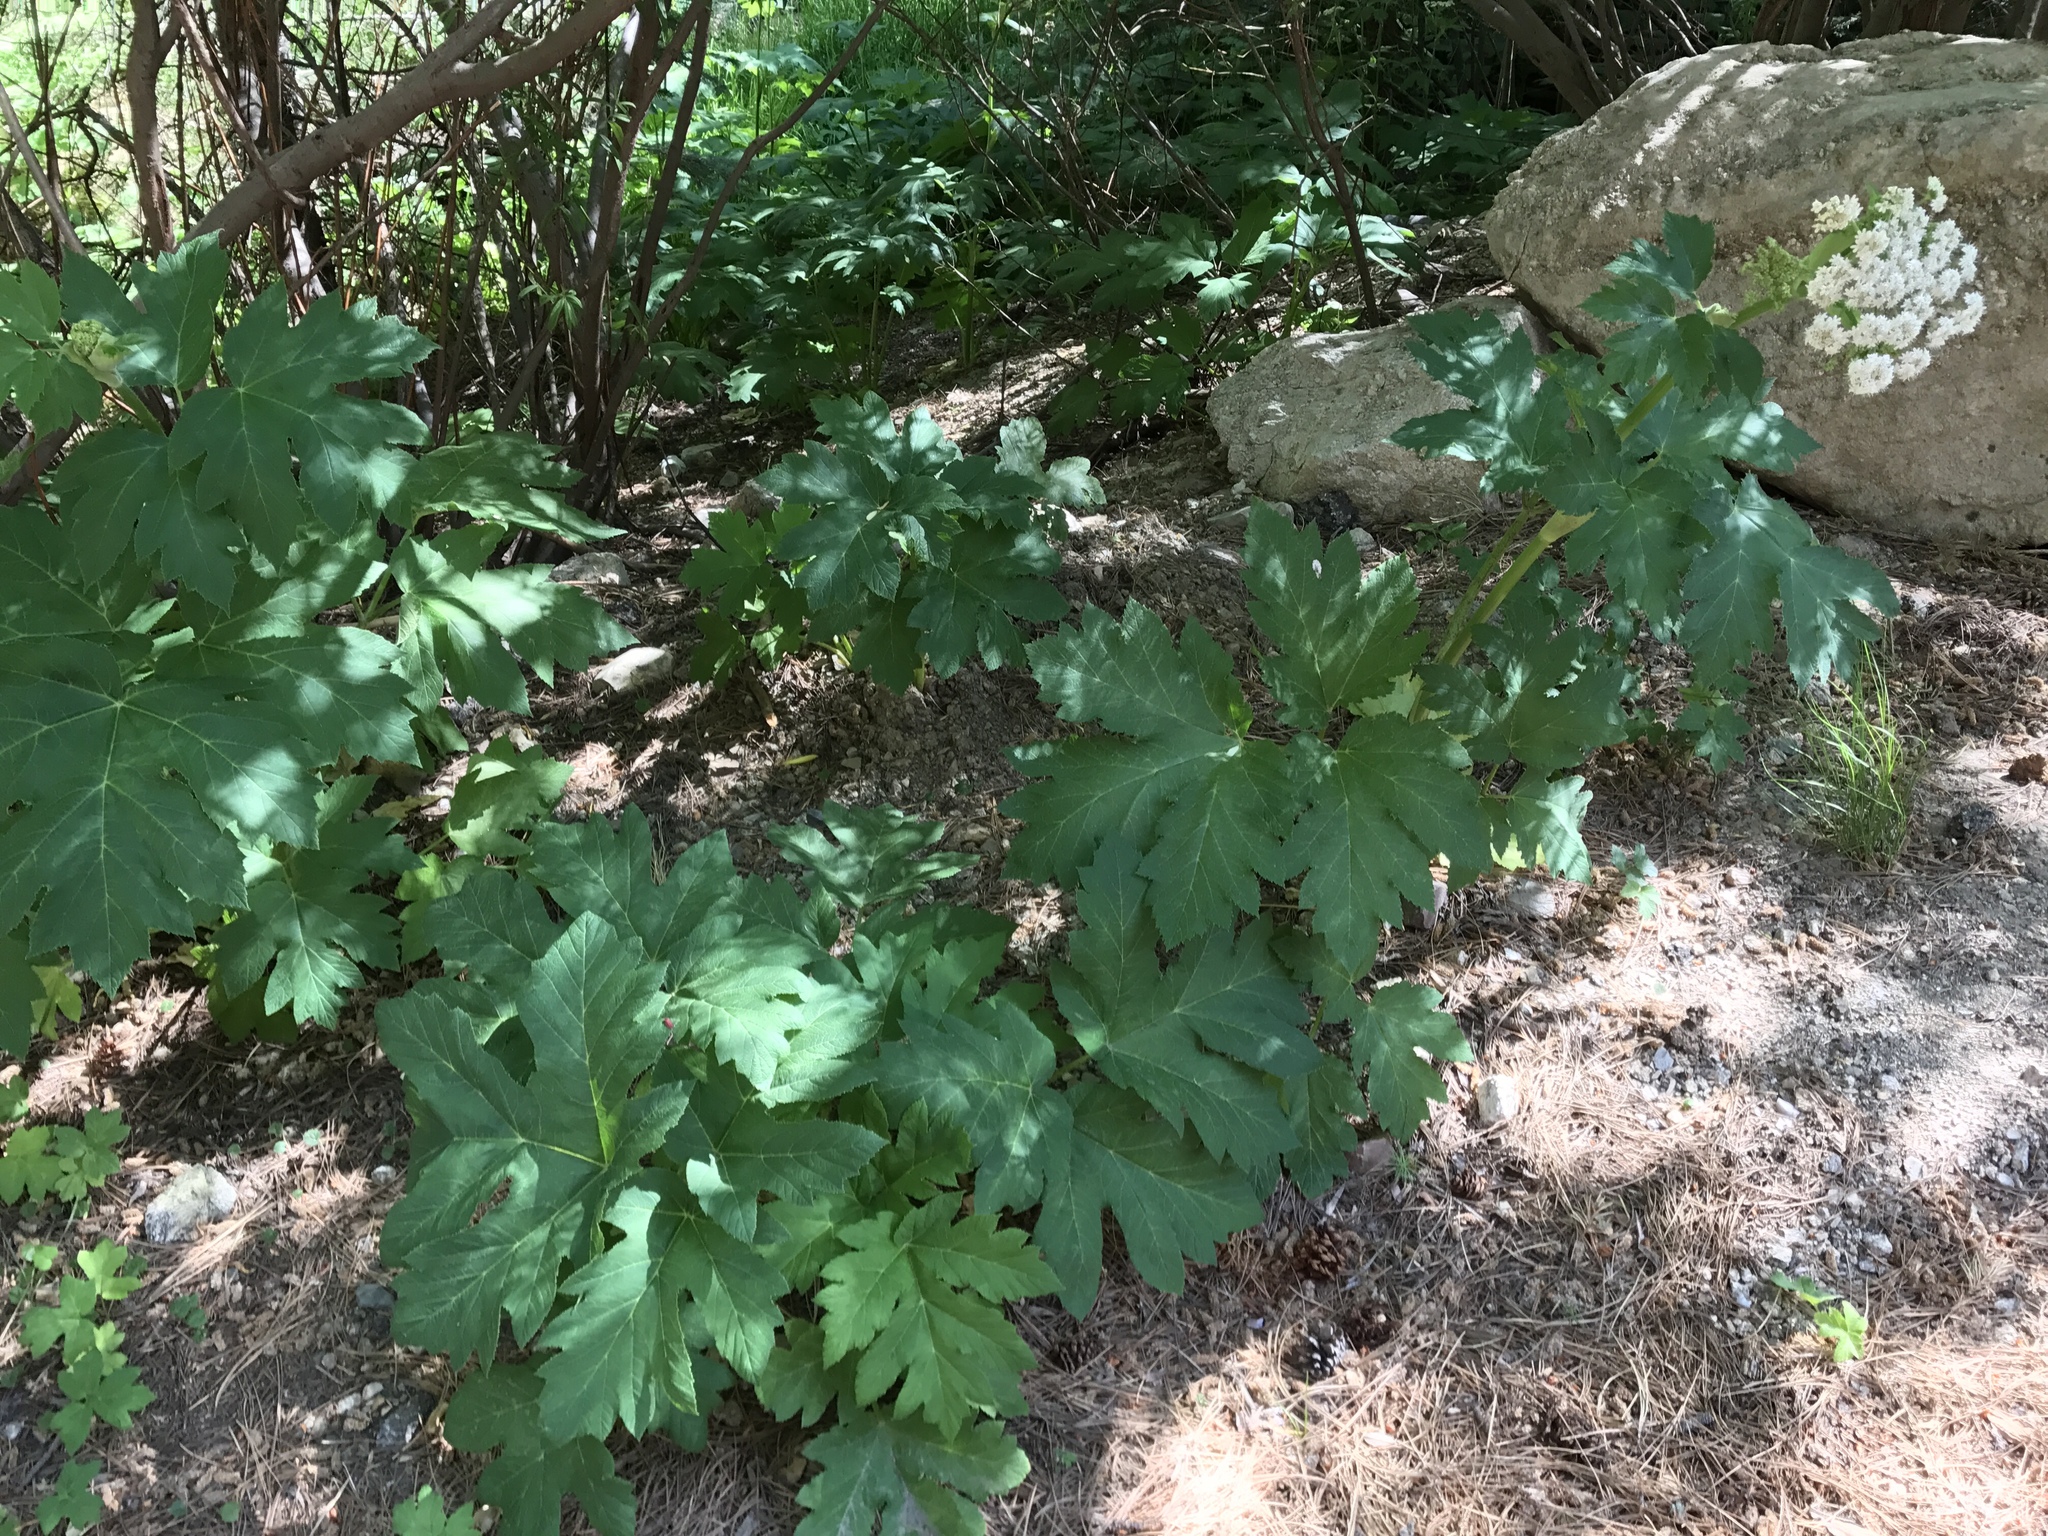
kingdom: Plantae
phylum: Tracheophyta
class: Magnoliopsida
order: Apiales
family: Apiaceae
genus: Heracleum
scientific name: Heracleum maximum
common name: American cow parsnip
